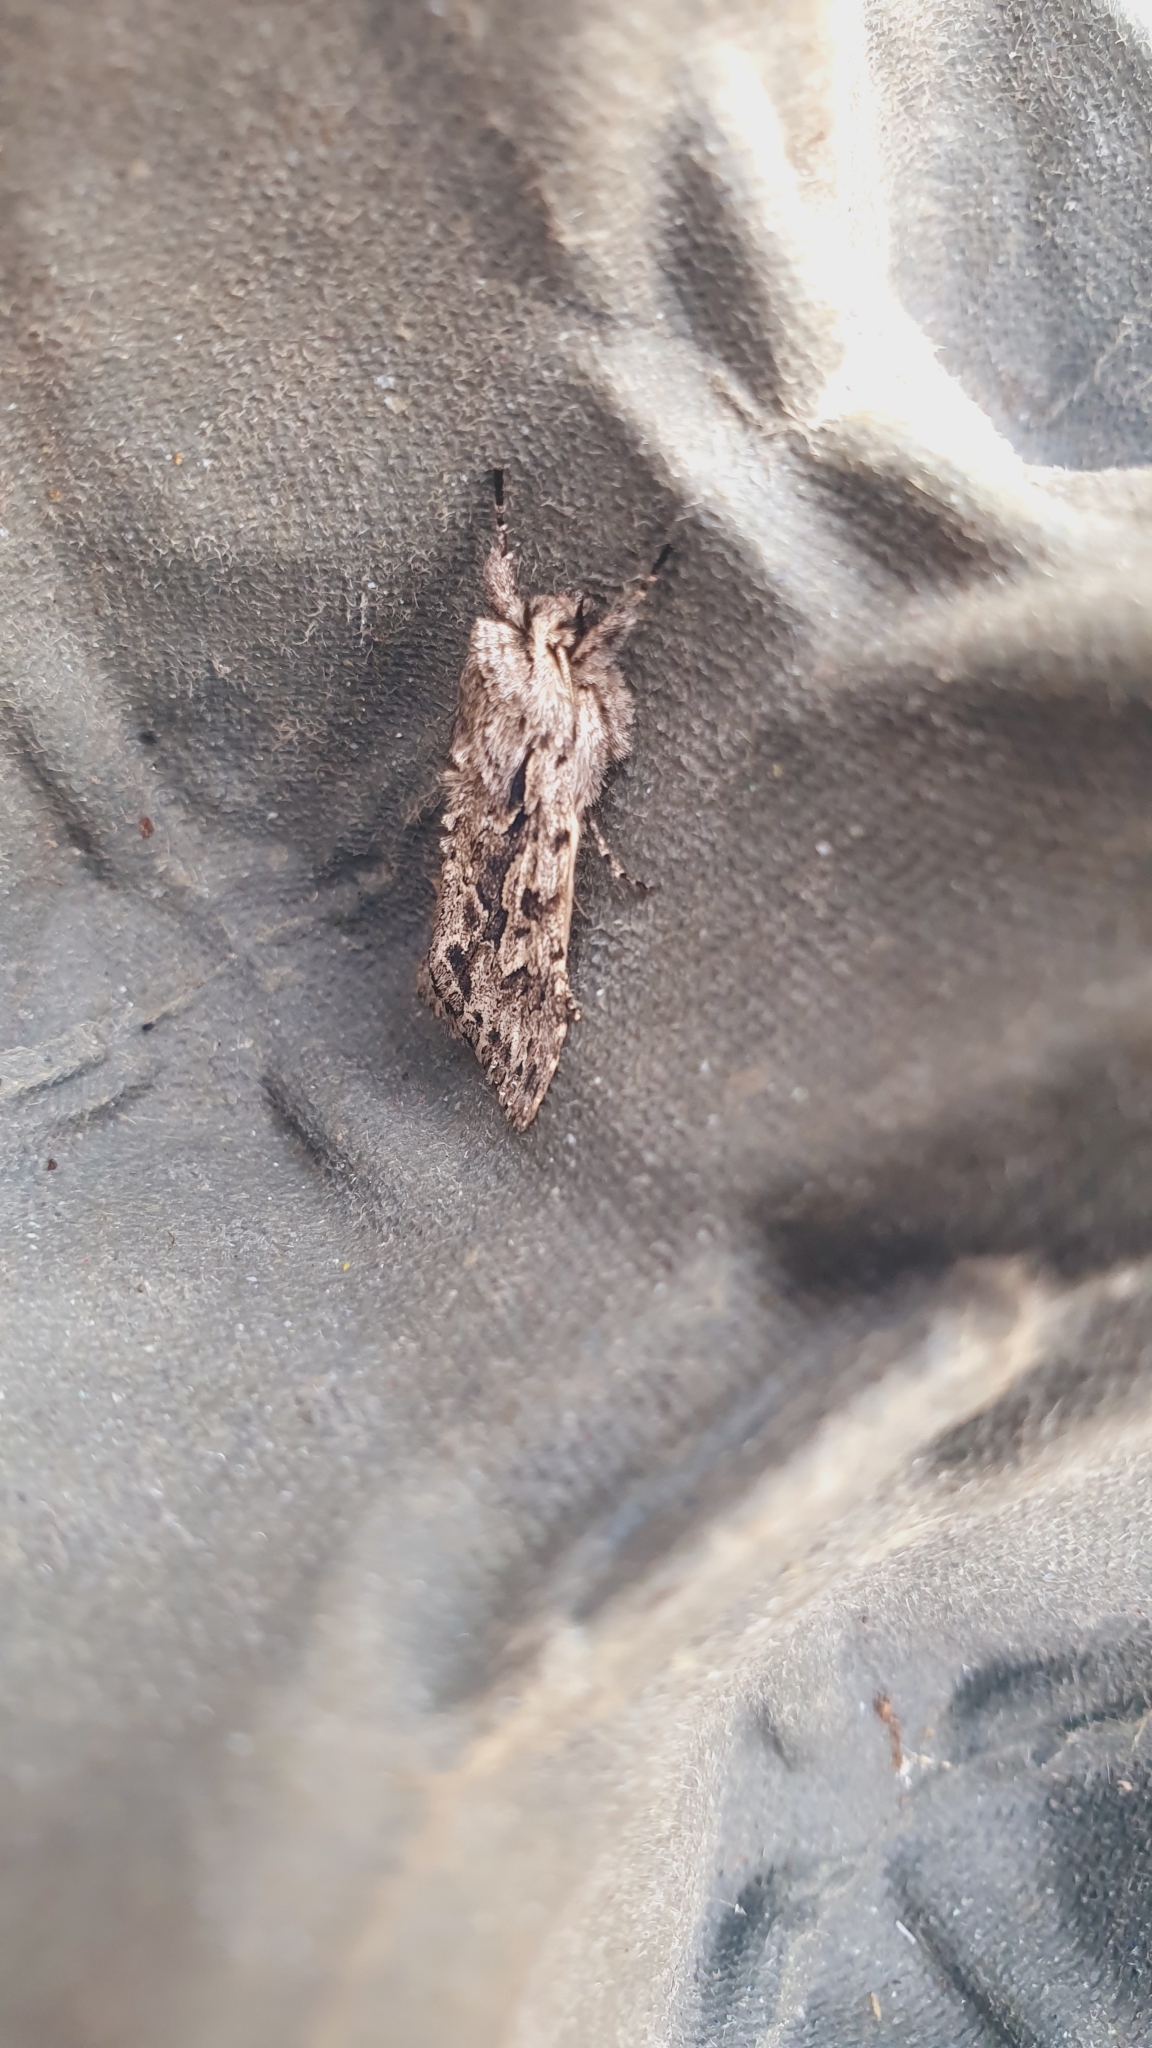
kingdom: Animalia
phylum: Arthropoda
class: Insecta
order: Lepidoptera
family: Noctuidae
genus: Xylocampa
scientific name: Xylocampa areola
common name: Early grey
